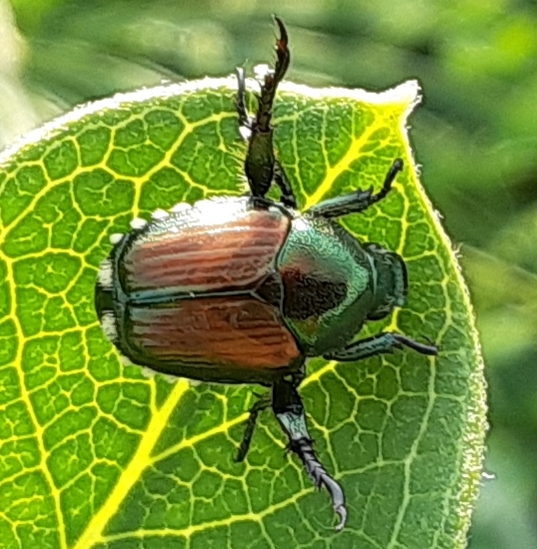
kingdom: Animalia
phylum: Arthropoda
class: Insecta
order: Coleoptera
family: Scarabaeidae
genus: Popillia
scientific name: Popillia japonica
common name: Japanese beetle
